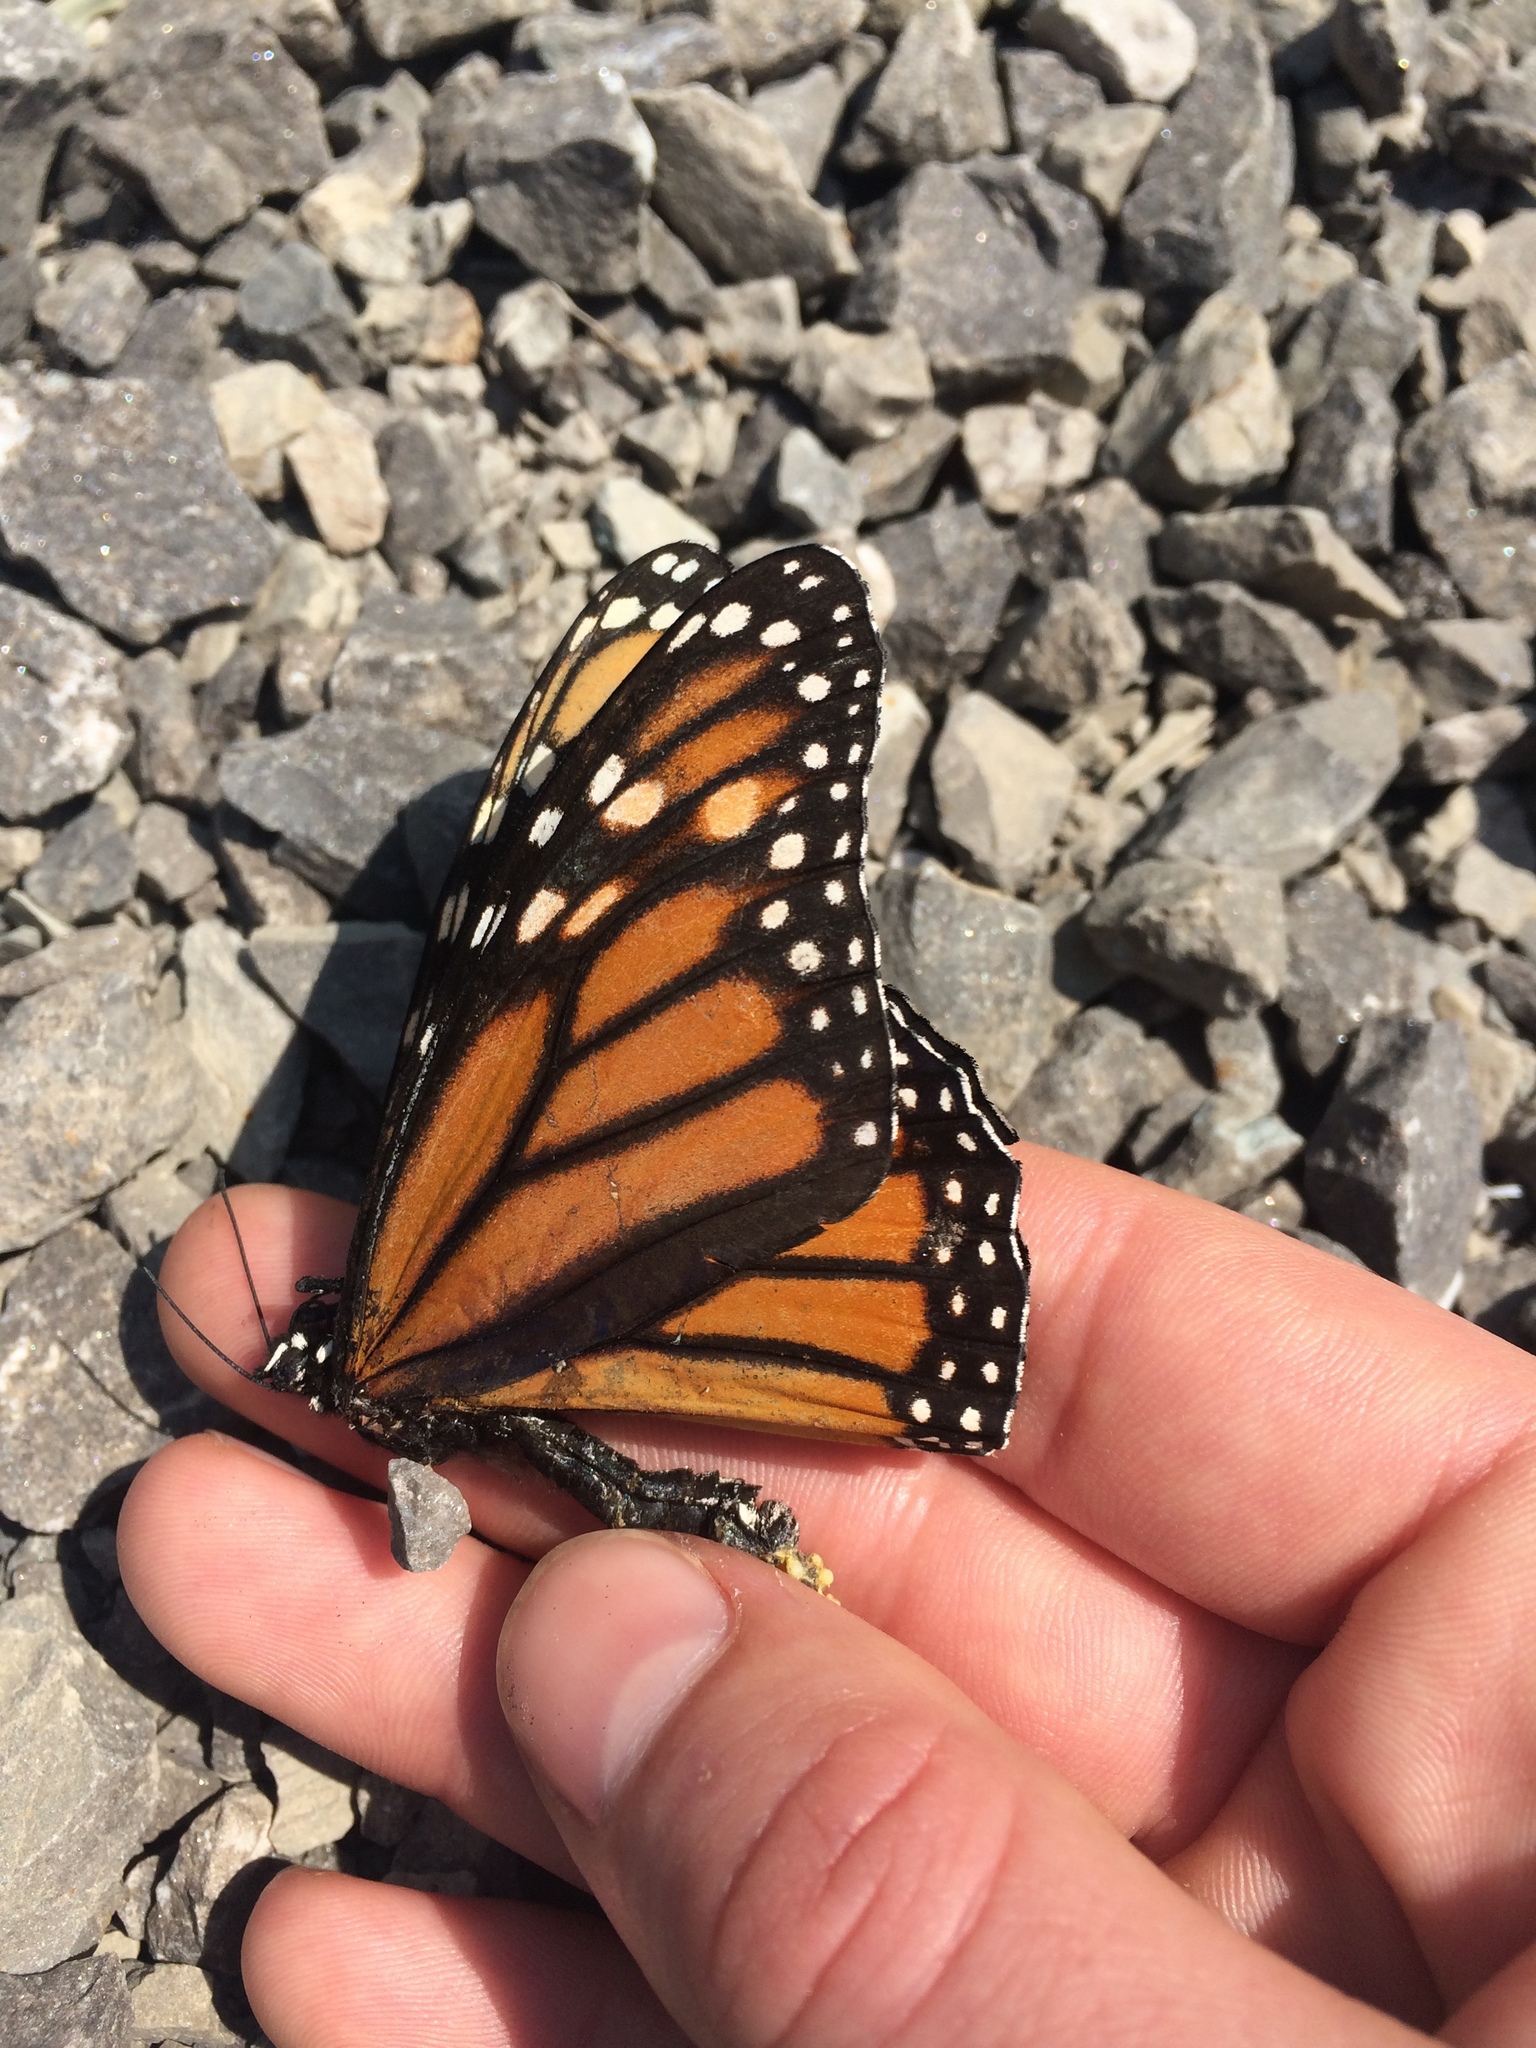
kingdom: Animalia
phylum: Arthropoda
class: Insecta
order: Lepidoptera
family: Nymphalidae
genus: Danaus
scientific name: Danaus plexippus
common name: Monarch
